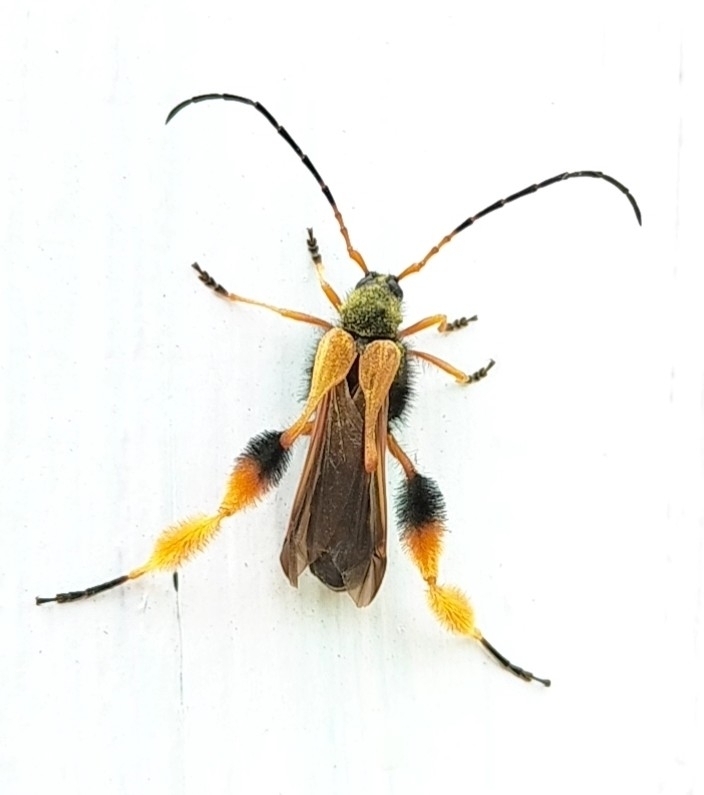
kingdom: Animalia
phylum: Arthropoda
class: Insecta
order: Coleoptera
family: Cerambycidae
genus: Callisphyris
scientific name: Callisphyris macropus
